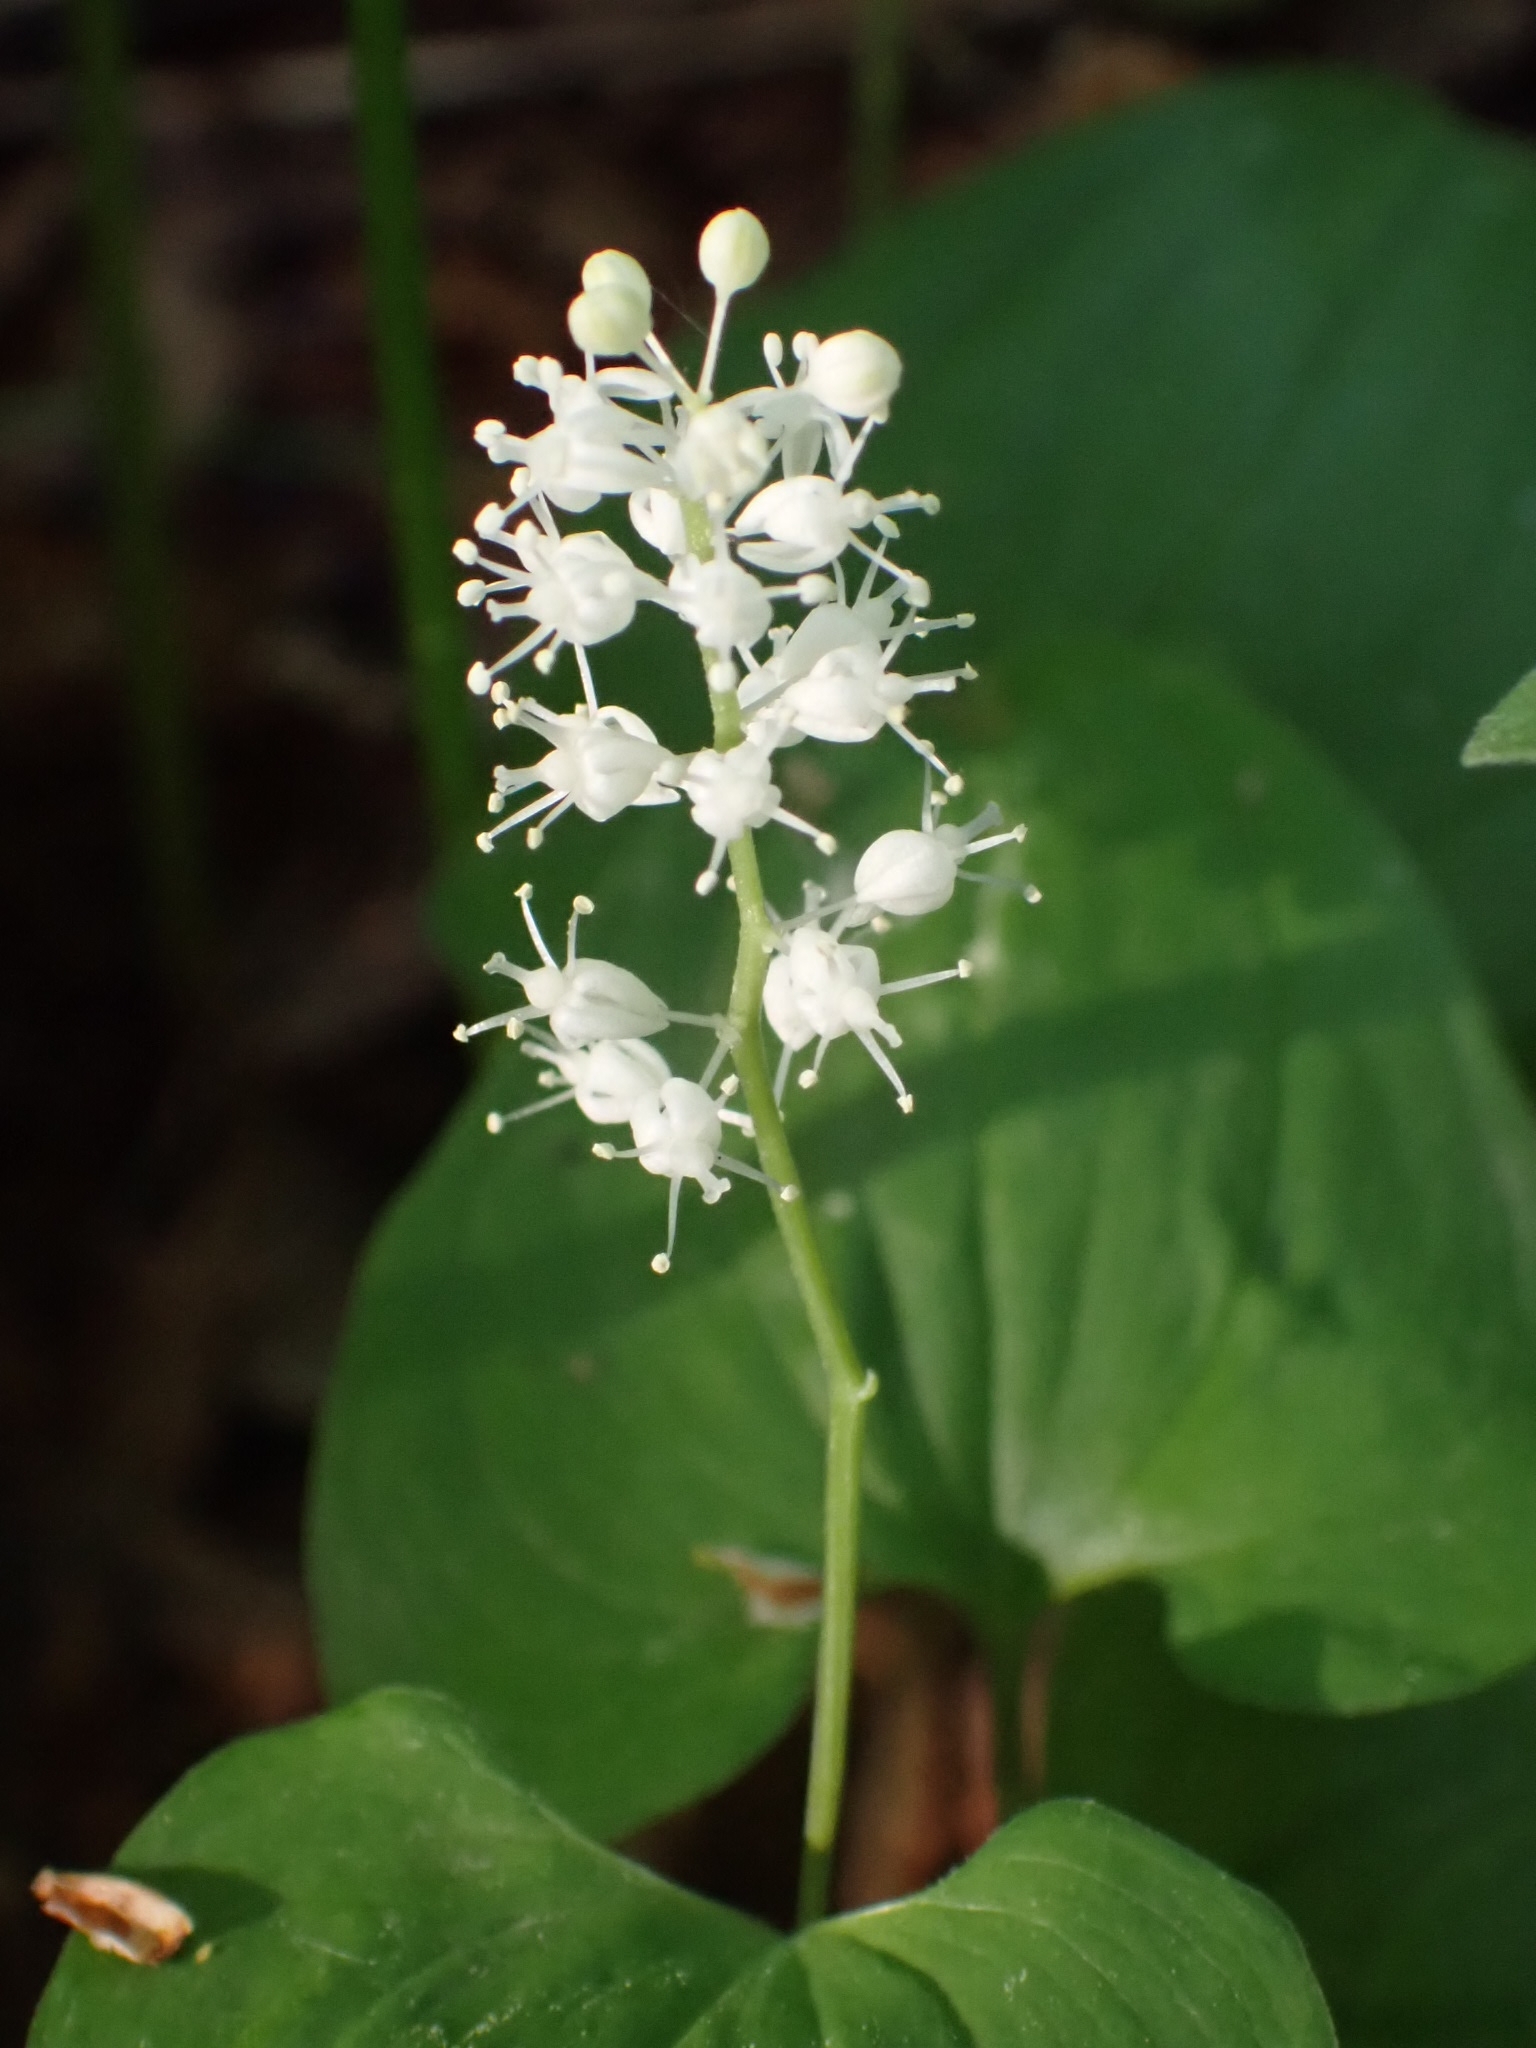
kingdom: Plantae
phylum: Tracheophyta
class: Liliopsida
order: Asparagales
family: Asparagaceae
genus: Maianthemum
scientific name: Maianthemum bifolium
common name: May lily
